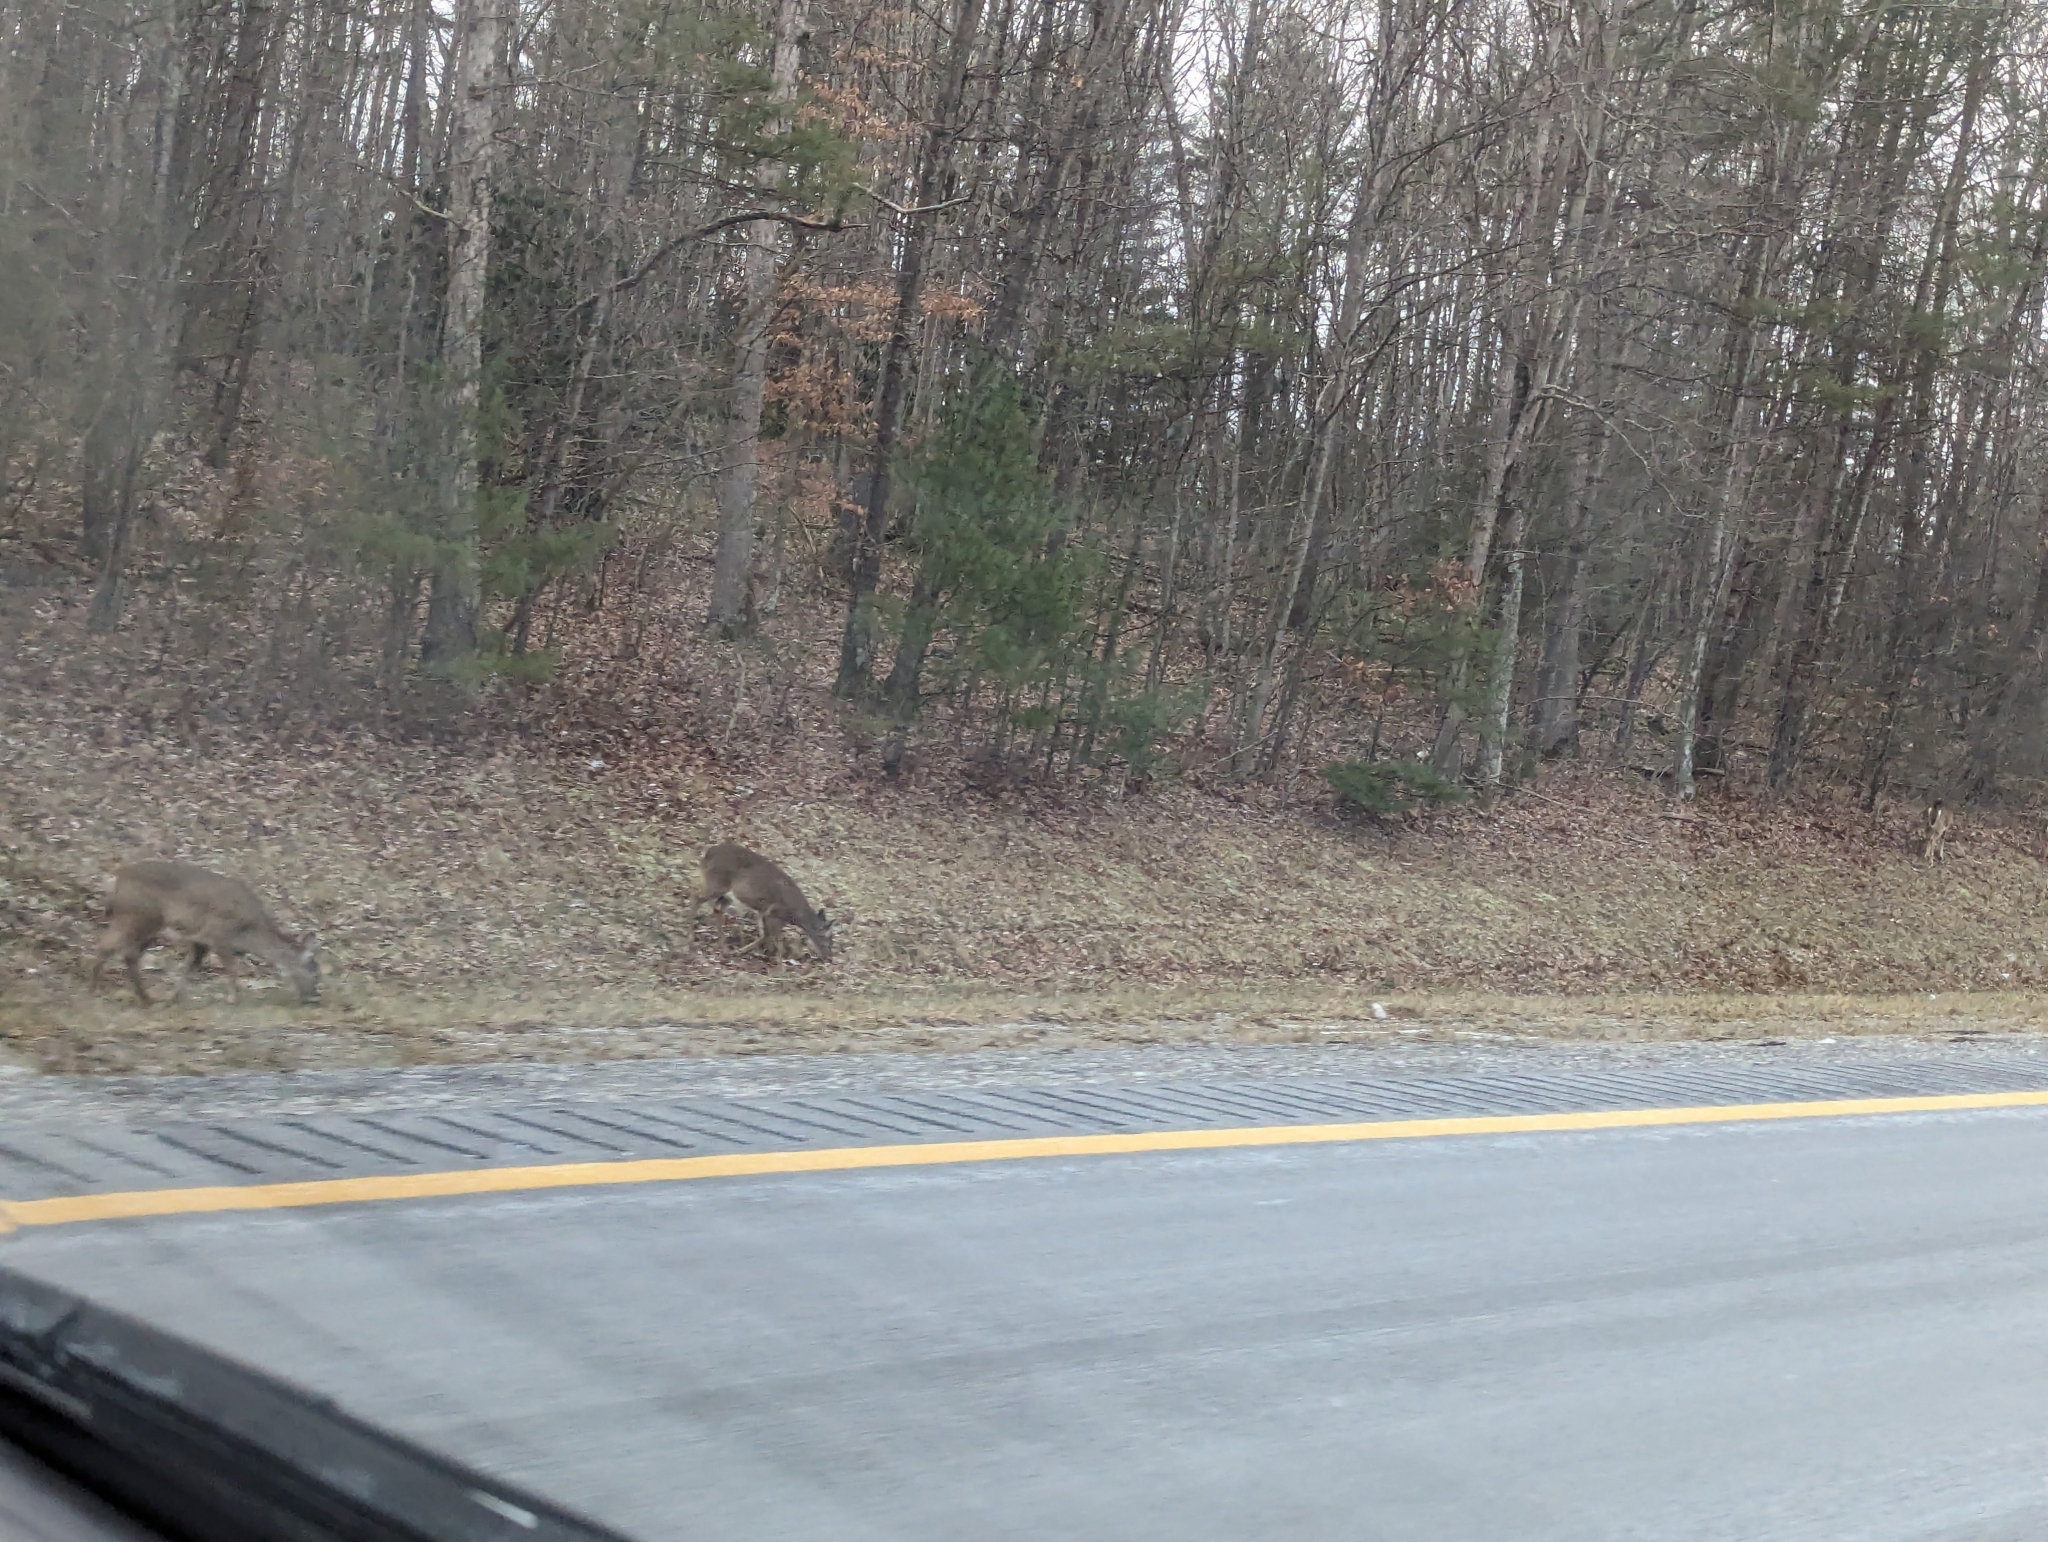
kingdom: Animalia
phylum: Chordata
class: Mammalia
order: Artiodactyla
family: Cervidae
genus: Odocoileus
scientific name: Odocoileus virginianus
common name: White-tailed deer
